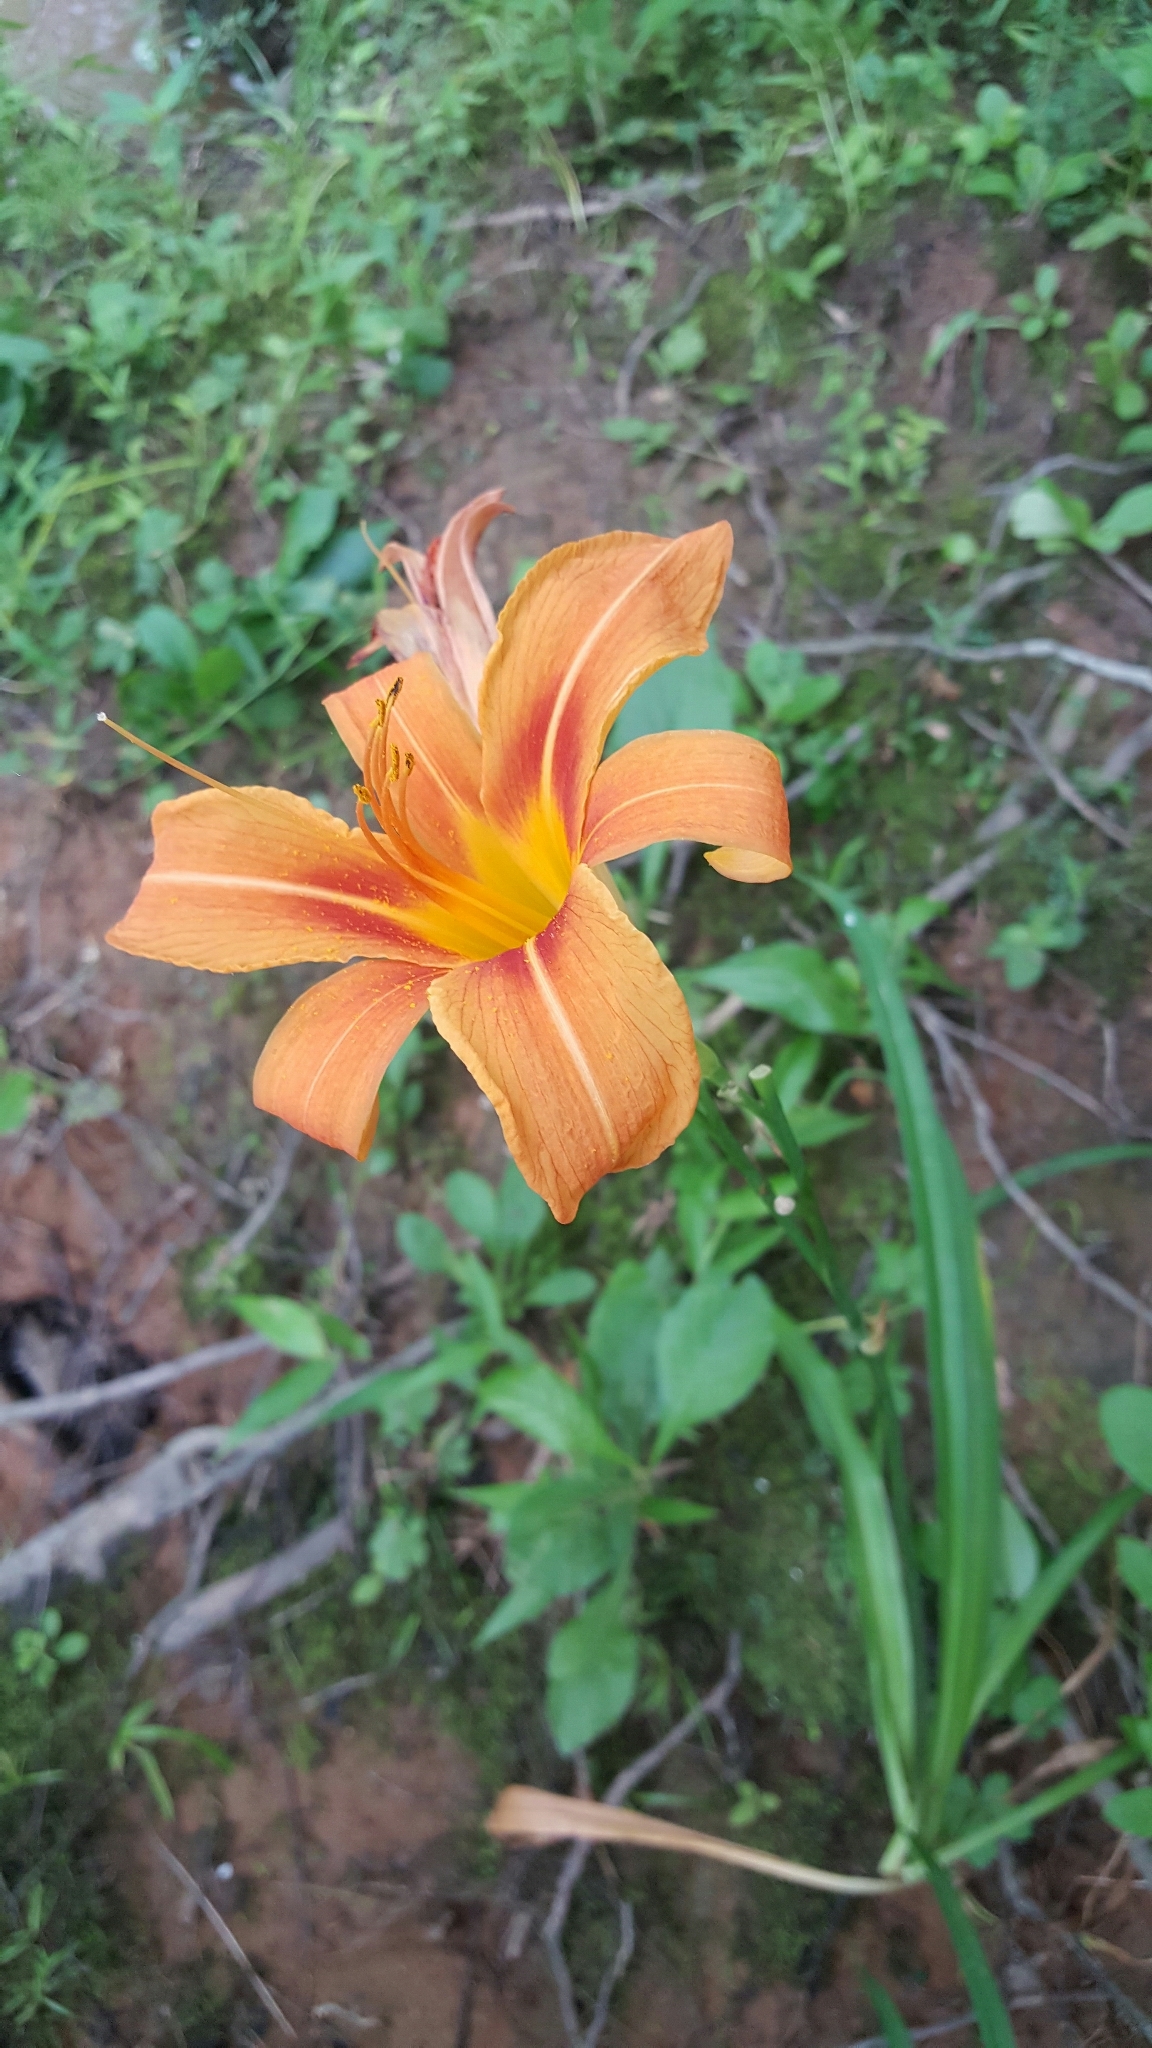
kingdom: Plantae
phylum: Tracheophyta
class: Liliopsida
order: Asparagales
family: Asphodelaceae
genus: Hemerocallis
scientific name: Hemerocallis fulva
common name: Orange day-lily
